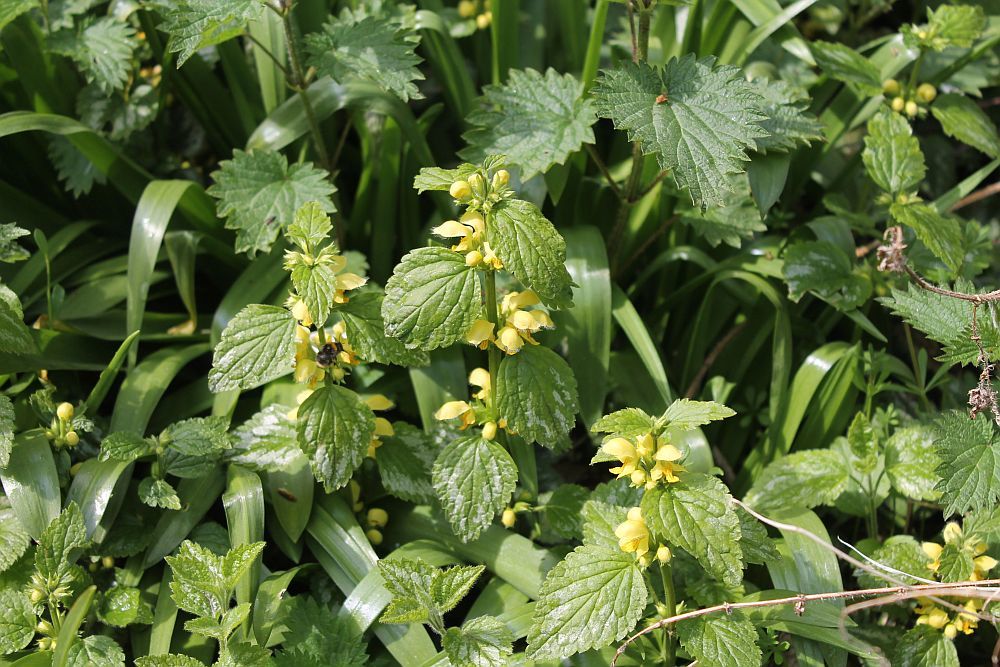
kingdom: Plantae
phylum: Tracheophyta
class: Magnoliopsida
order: Lamiales
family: Lamiaceae
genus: Lamium
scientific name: Lamium galeobdolon
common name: Yellow archangel
